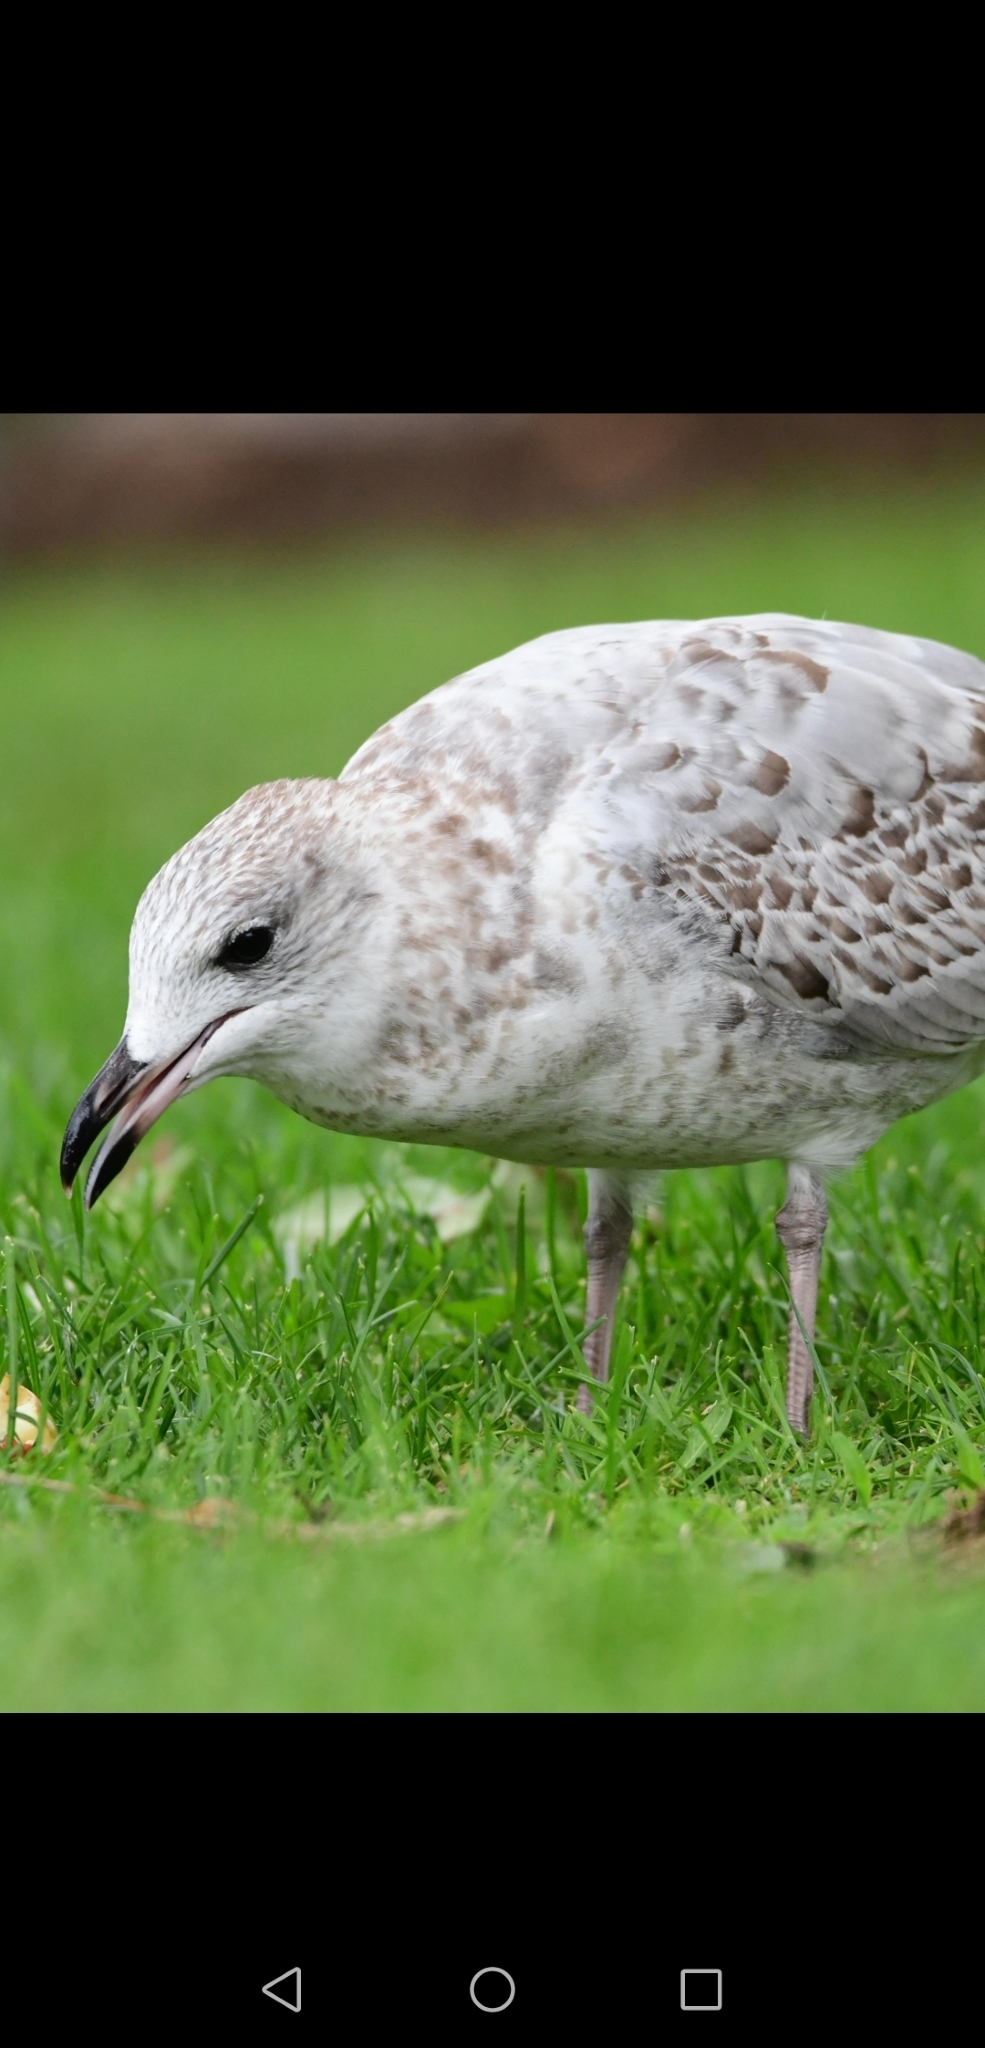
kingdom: Animalia
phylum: Chordata
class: Aves
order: Charadriiformes
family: Laridae
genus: Larus
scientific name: Larus delawarensis
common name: Ring-billed gull
